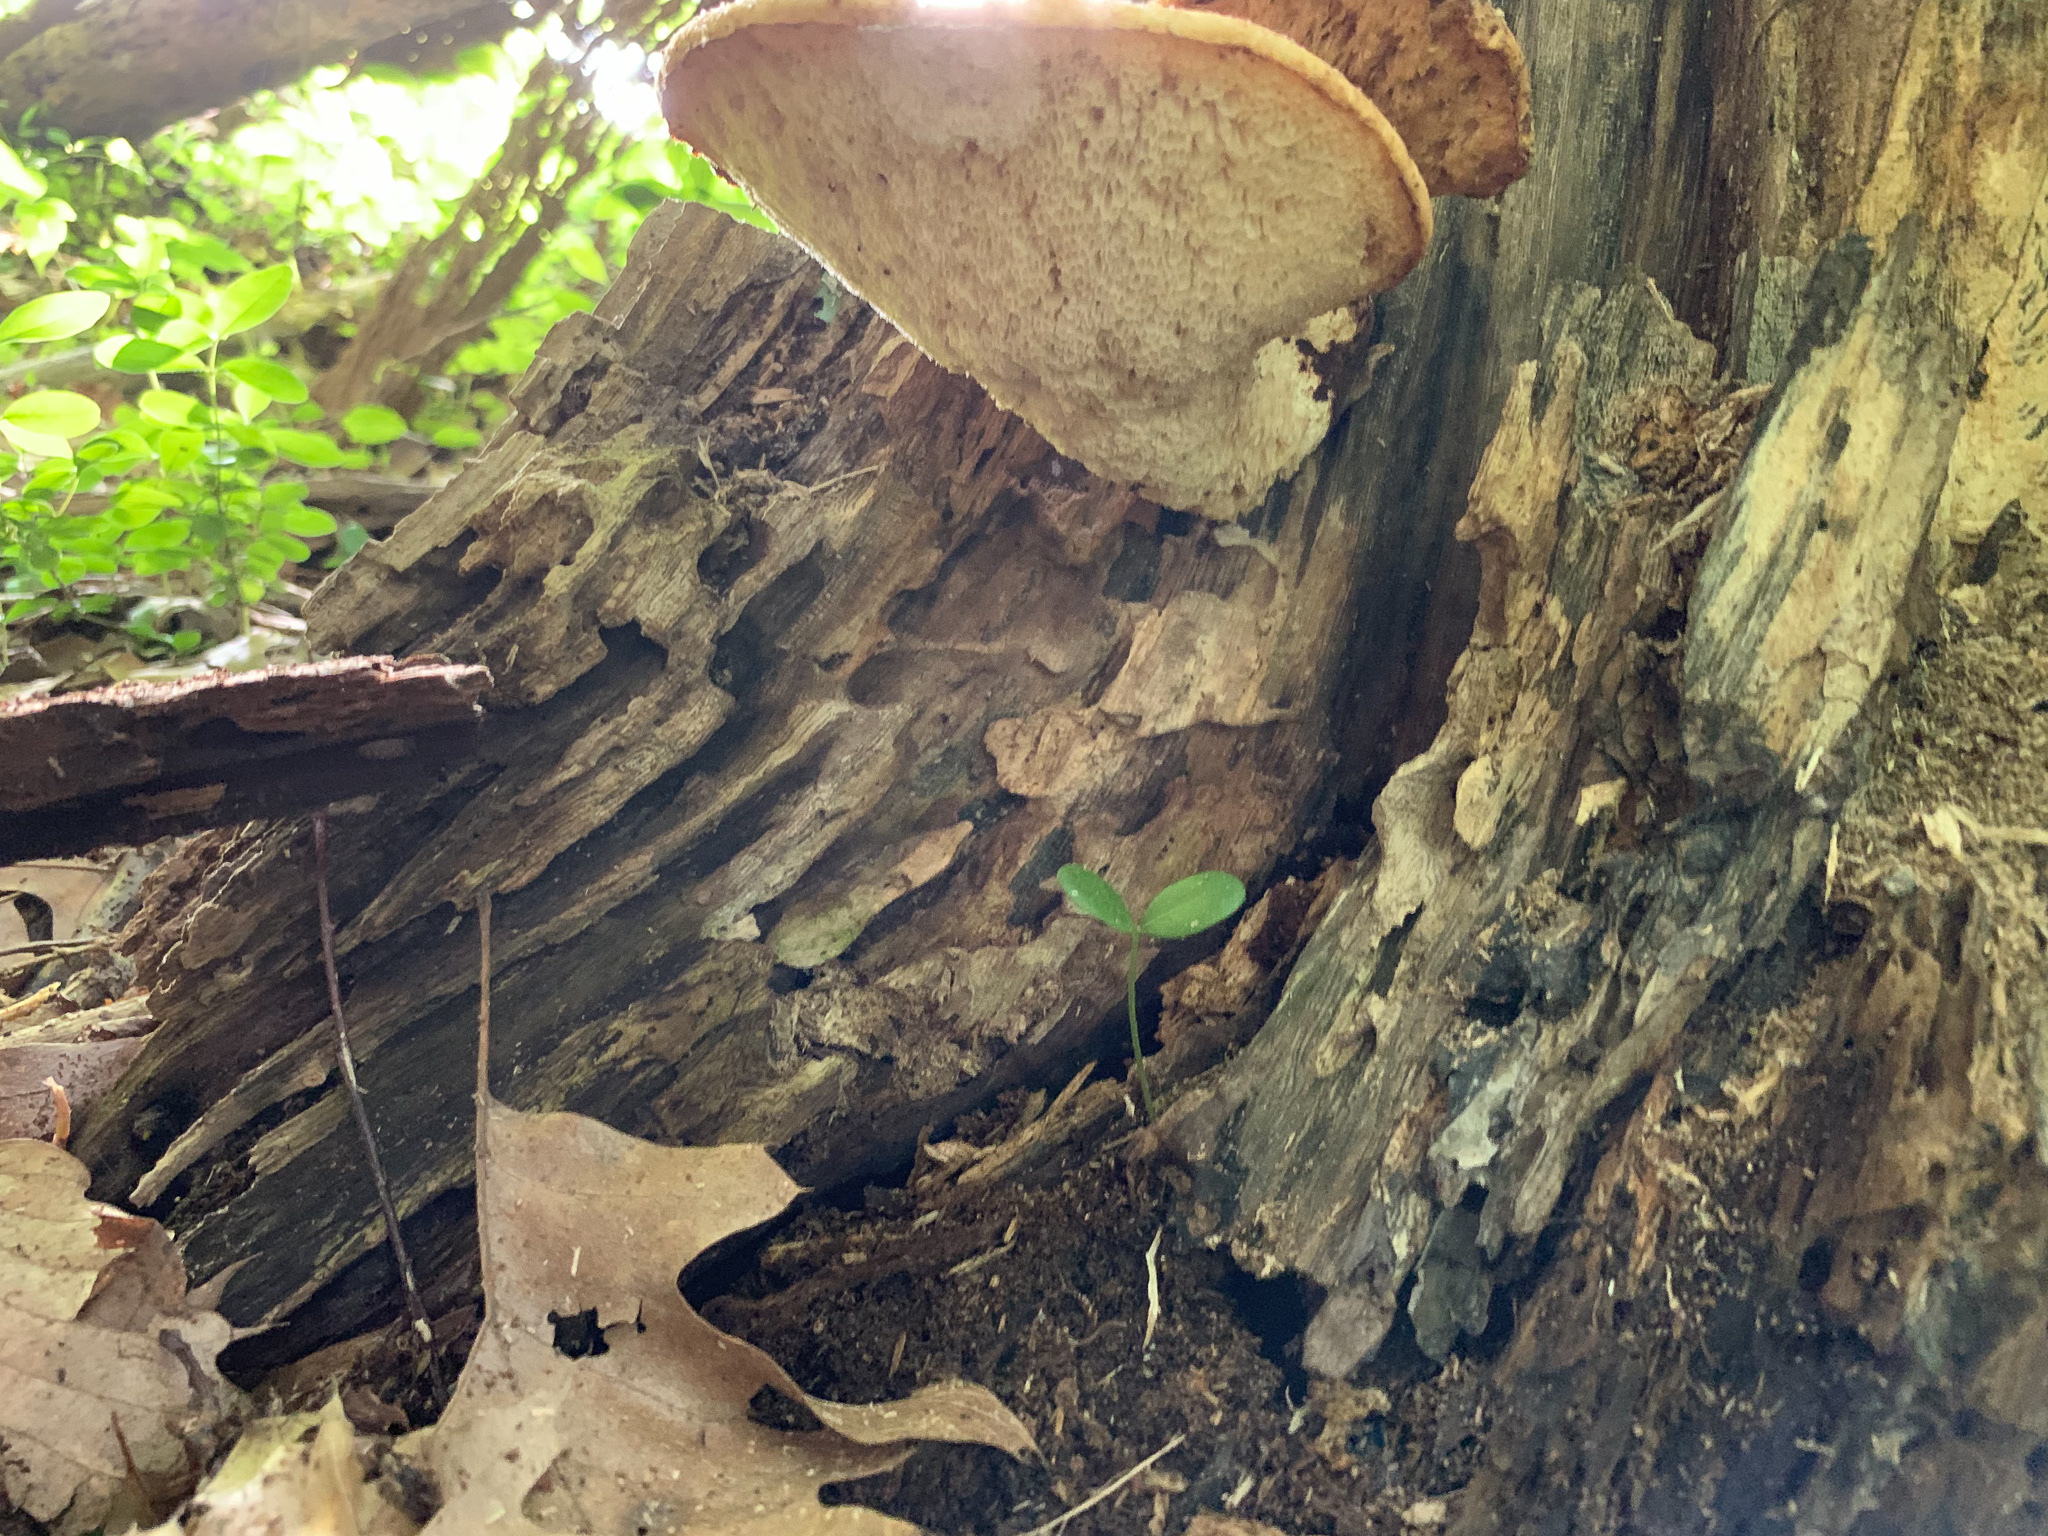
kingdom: Fungi
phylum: Basidiomycota
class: Agaricomycetes
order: Polyporales
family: Polyporaceae
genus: Cerioporus
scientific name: Cerioporus squamosus
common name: Dryad's saddle
